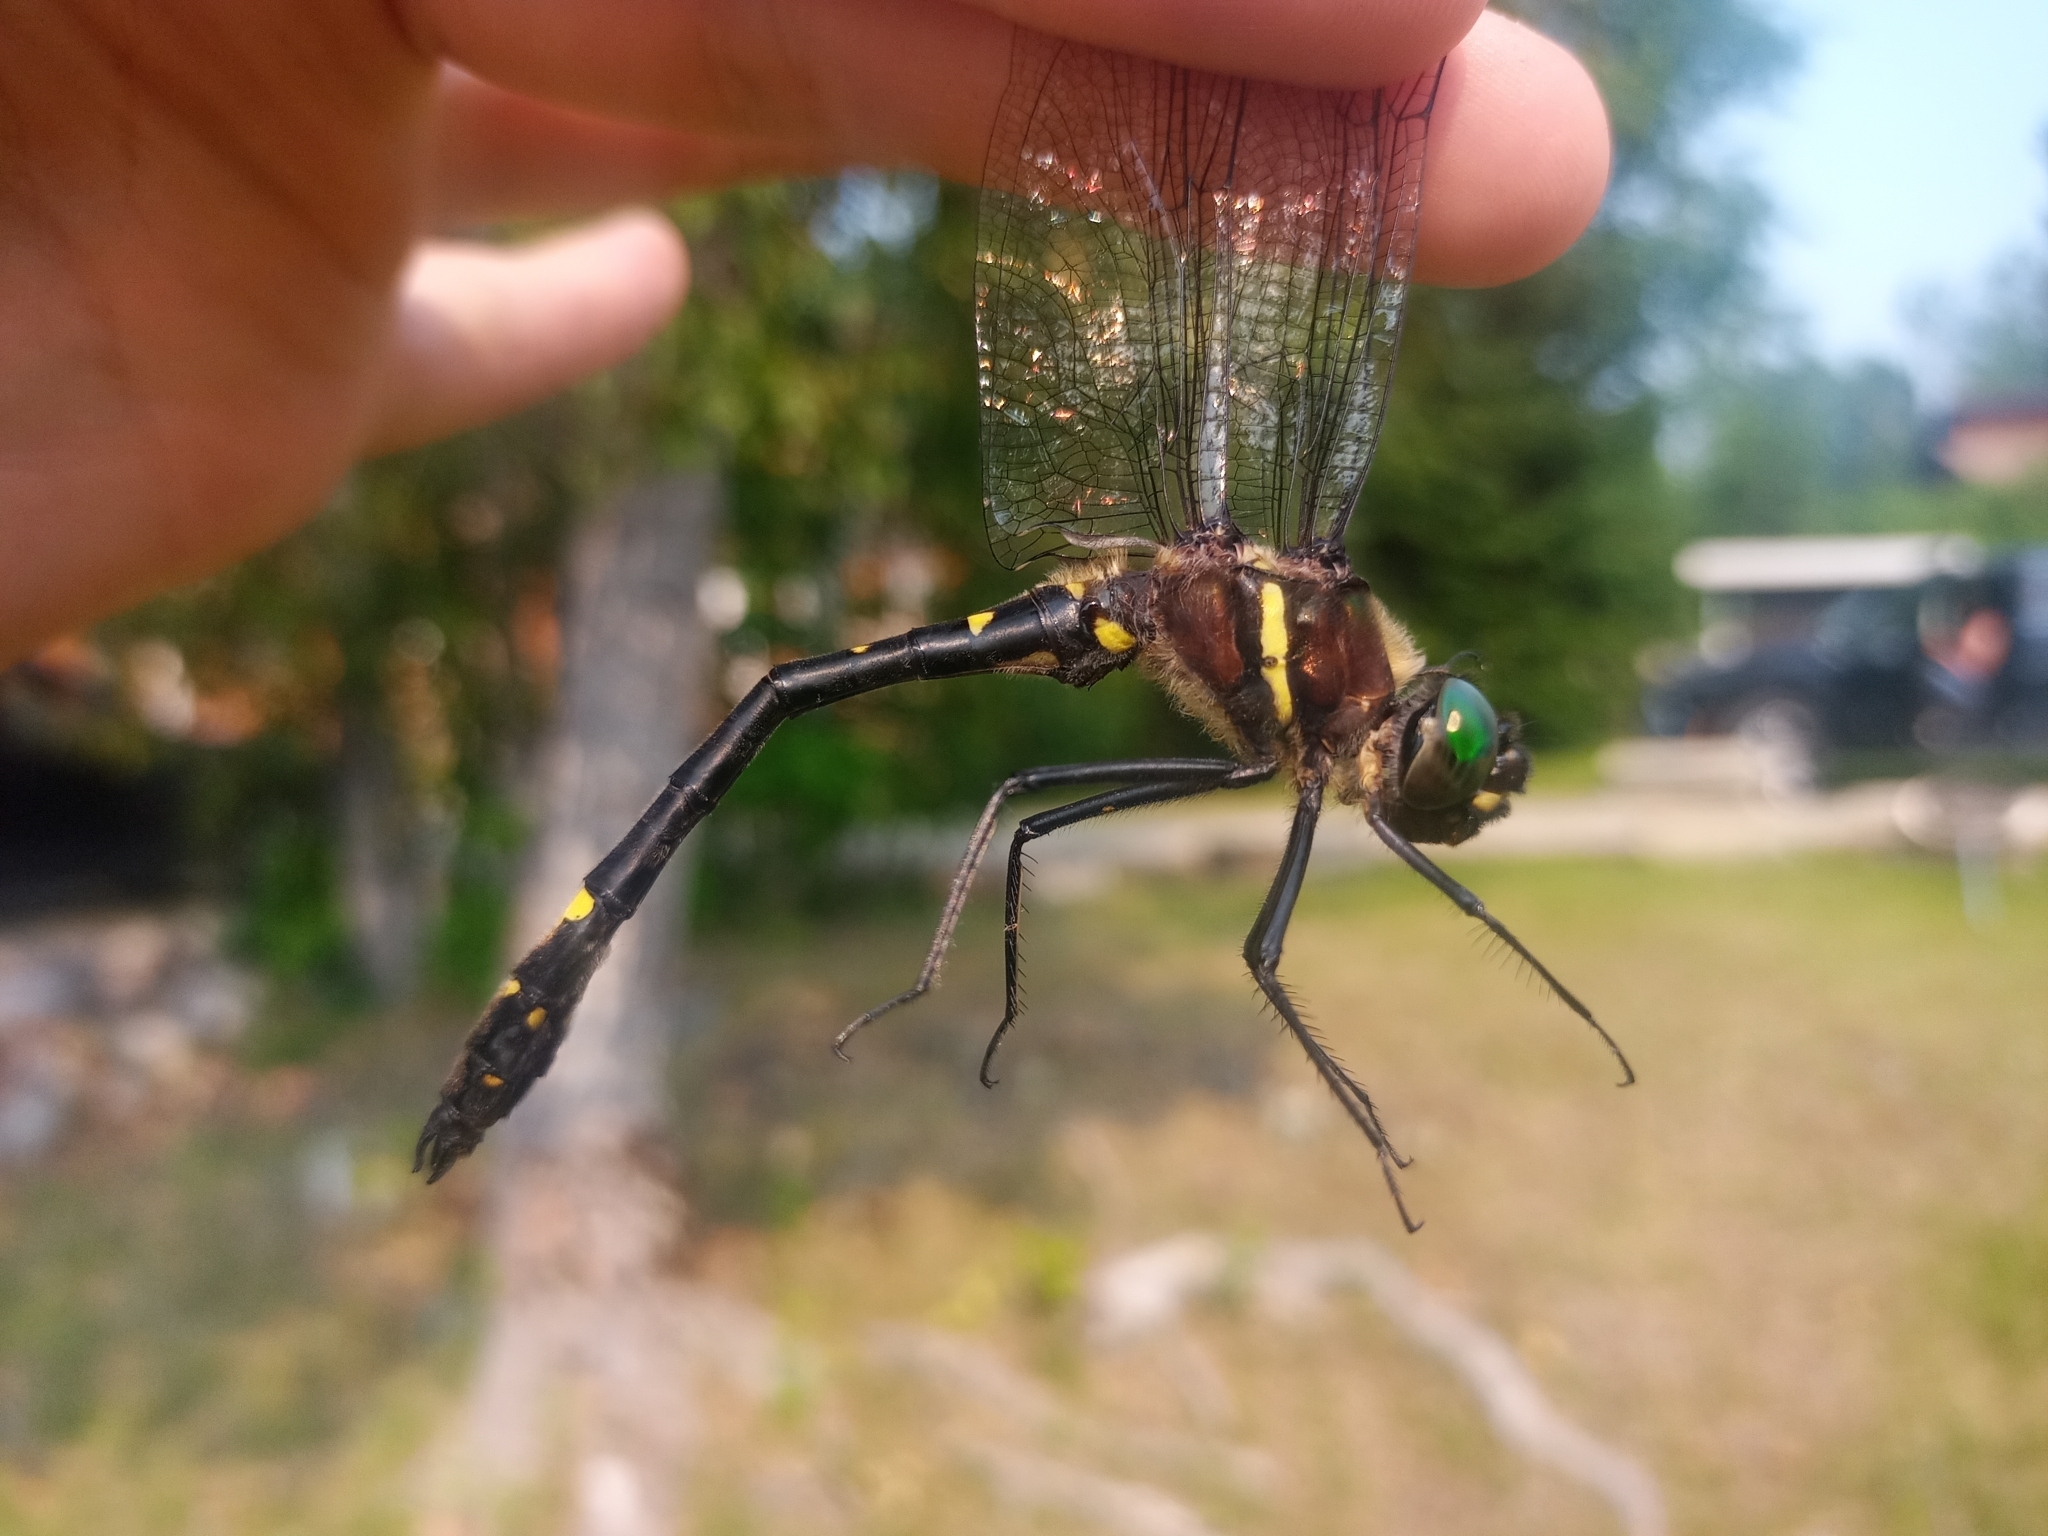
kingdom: Animalia
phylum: Arthropoda
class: Insecta
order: Odonata
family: Macromiidae
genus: Macromia
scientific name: Macromia illinoiensis
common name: Swift river cruiser
